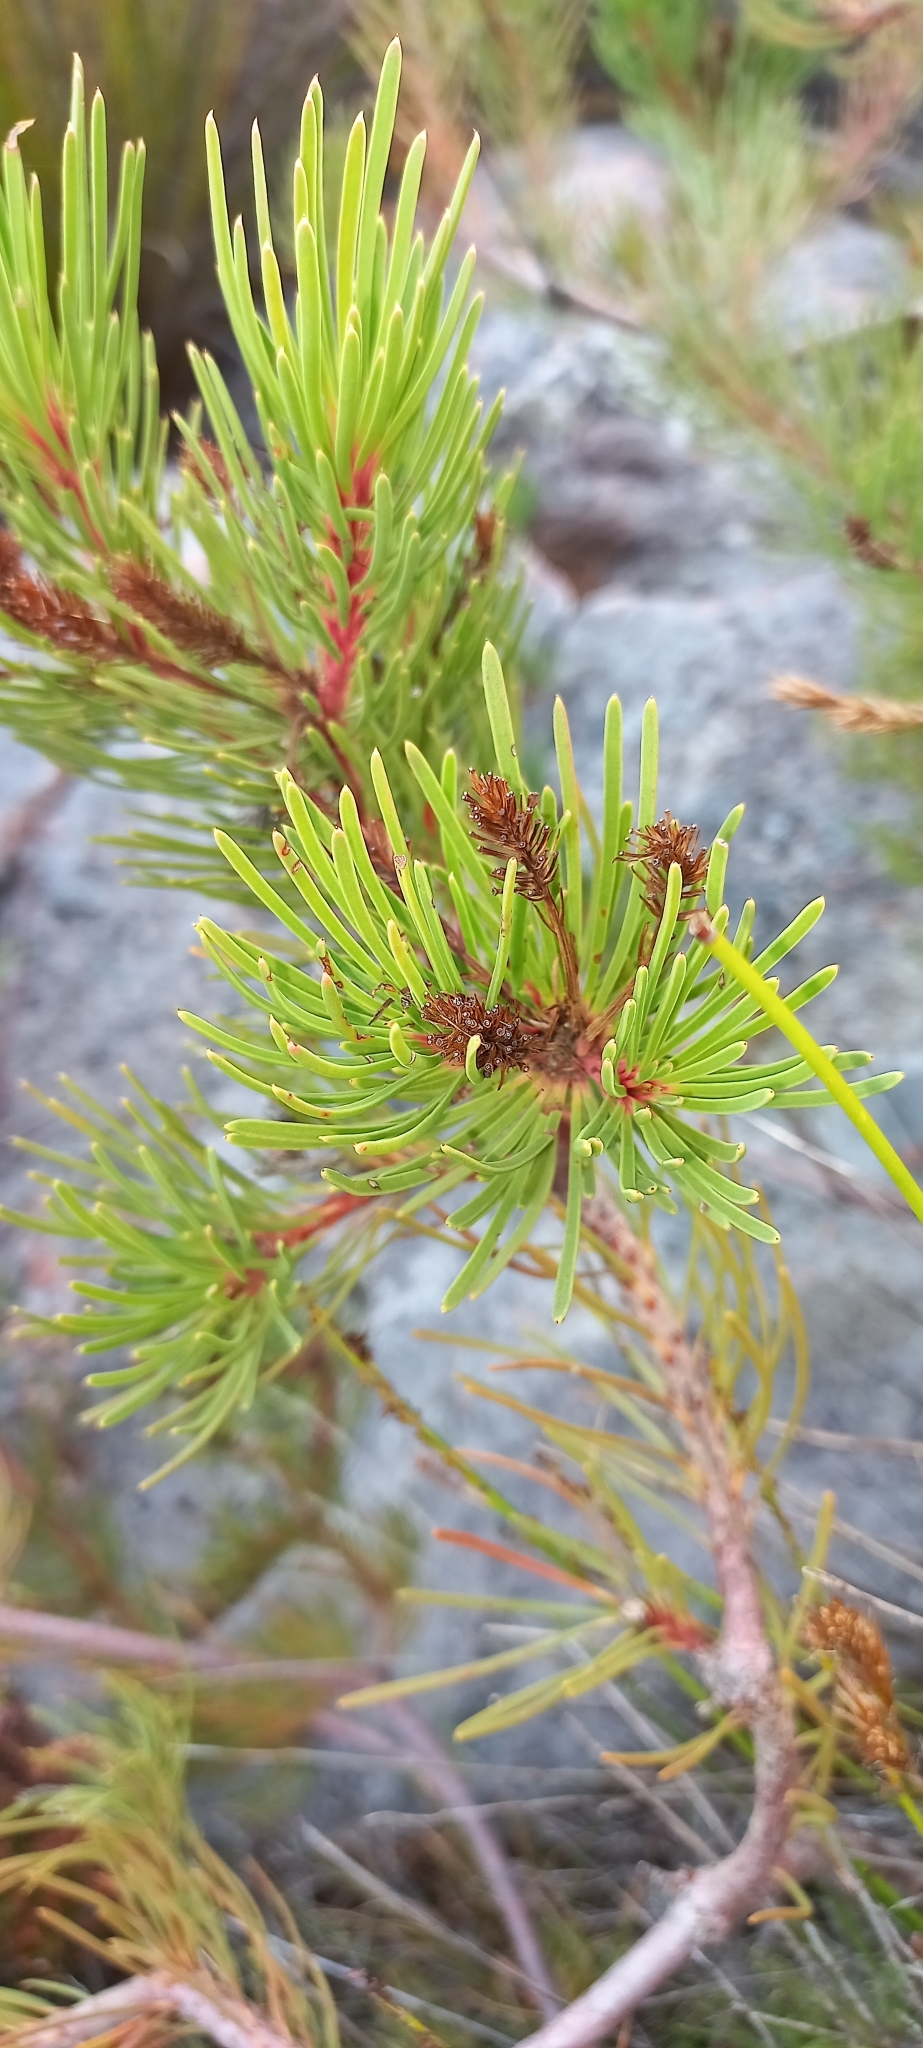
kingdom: Plantae
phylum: Tracheophyta
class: Magnoliopsida
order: Proteales
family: Proteaceae
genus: Aulax
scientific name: Aulax cancellata
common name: Channel-leaf featherbush
